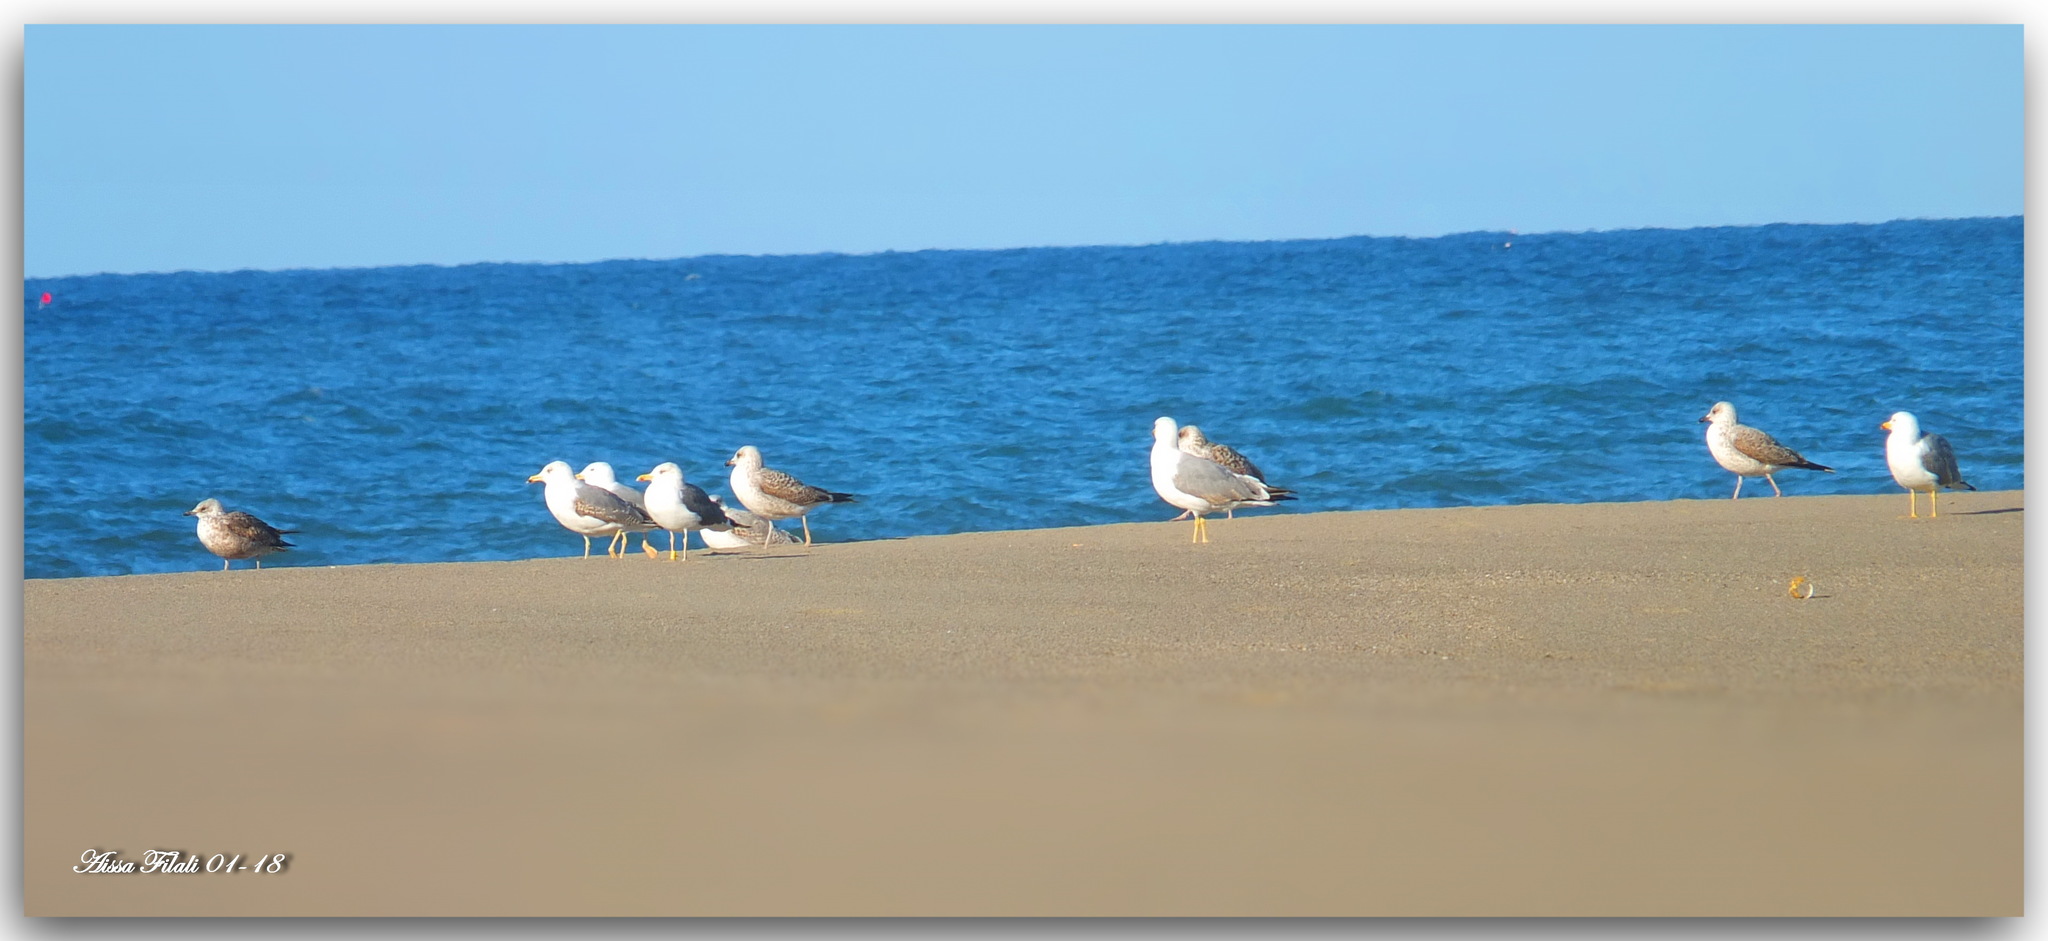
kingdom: Animalia
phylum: Chordata
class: Aves
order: Charadriiformes
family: Laridae
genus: Larus
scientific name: Larus michahellis
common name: Yellow-legged gull
